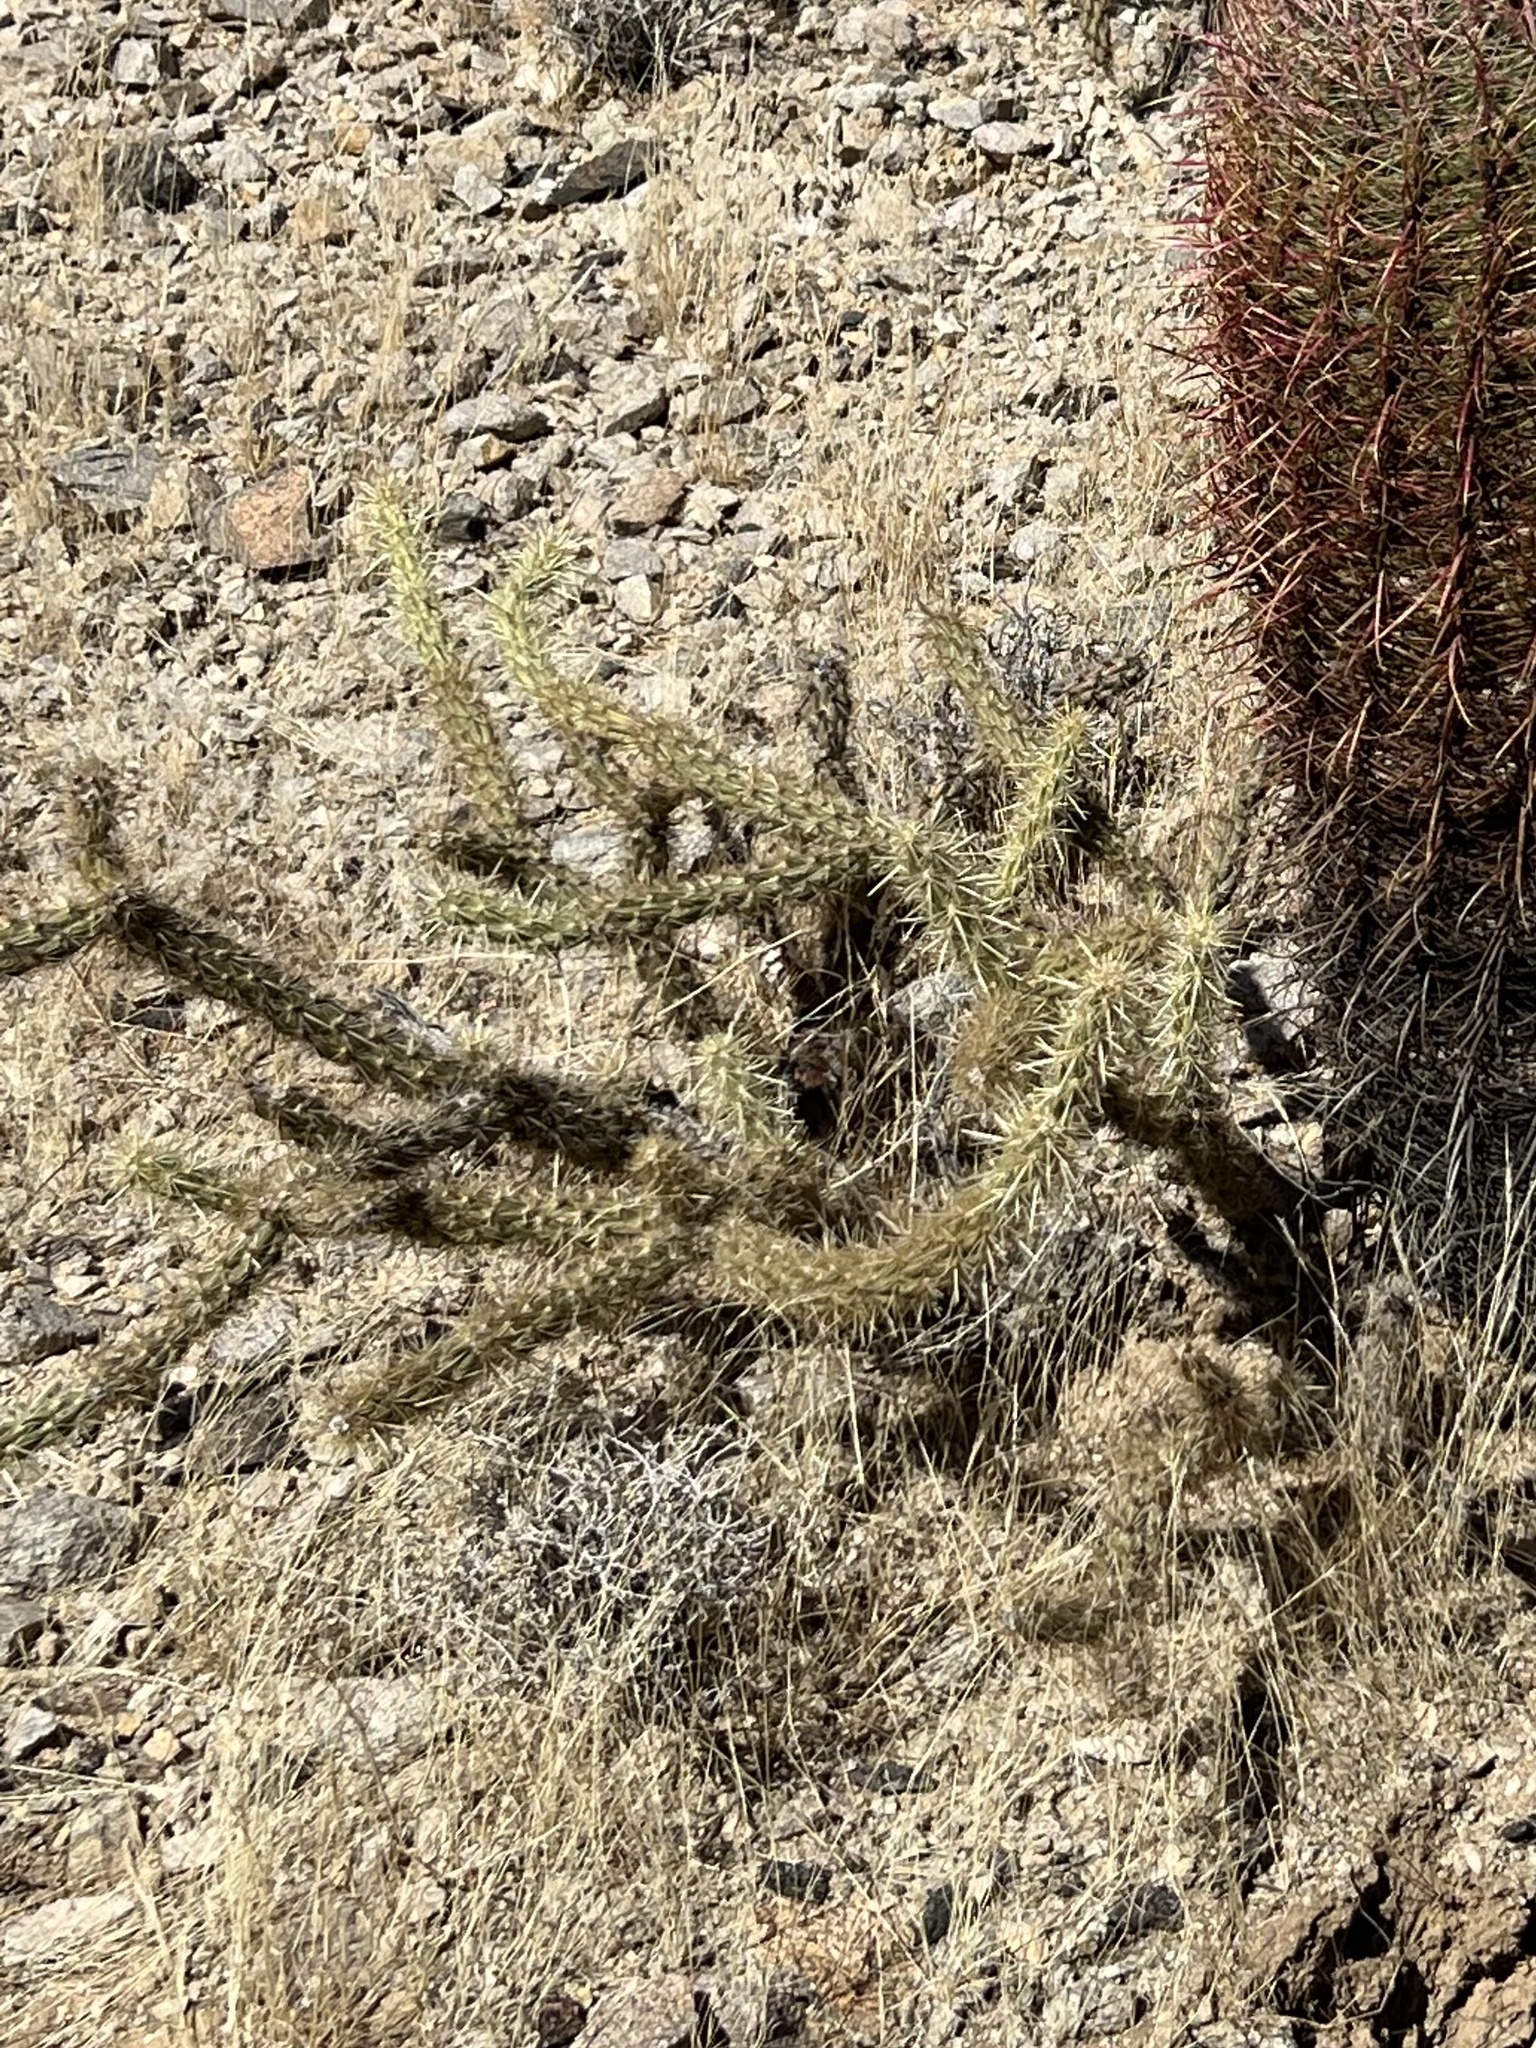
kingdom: Plantae
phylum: Tracheophyta
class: Magnoliopsida
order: Caryophyllales
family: Cactaceae
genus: Cylindropuntia
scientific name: Cylindropuntia acanthocarpa
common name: Buckhorn cholla
